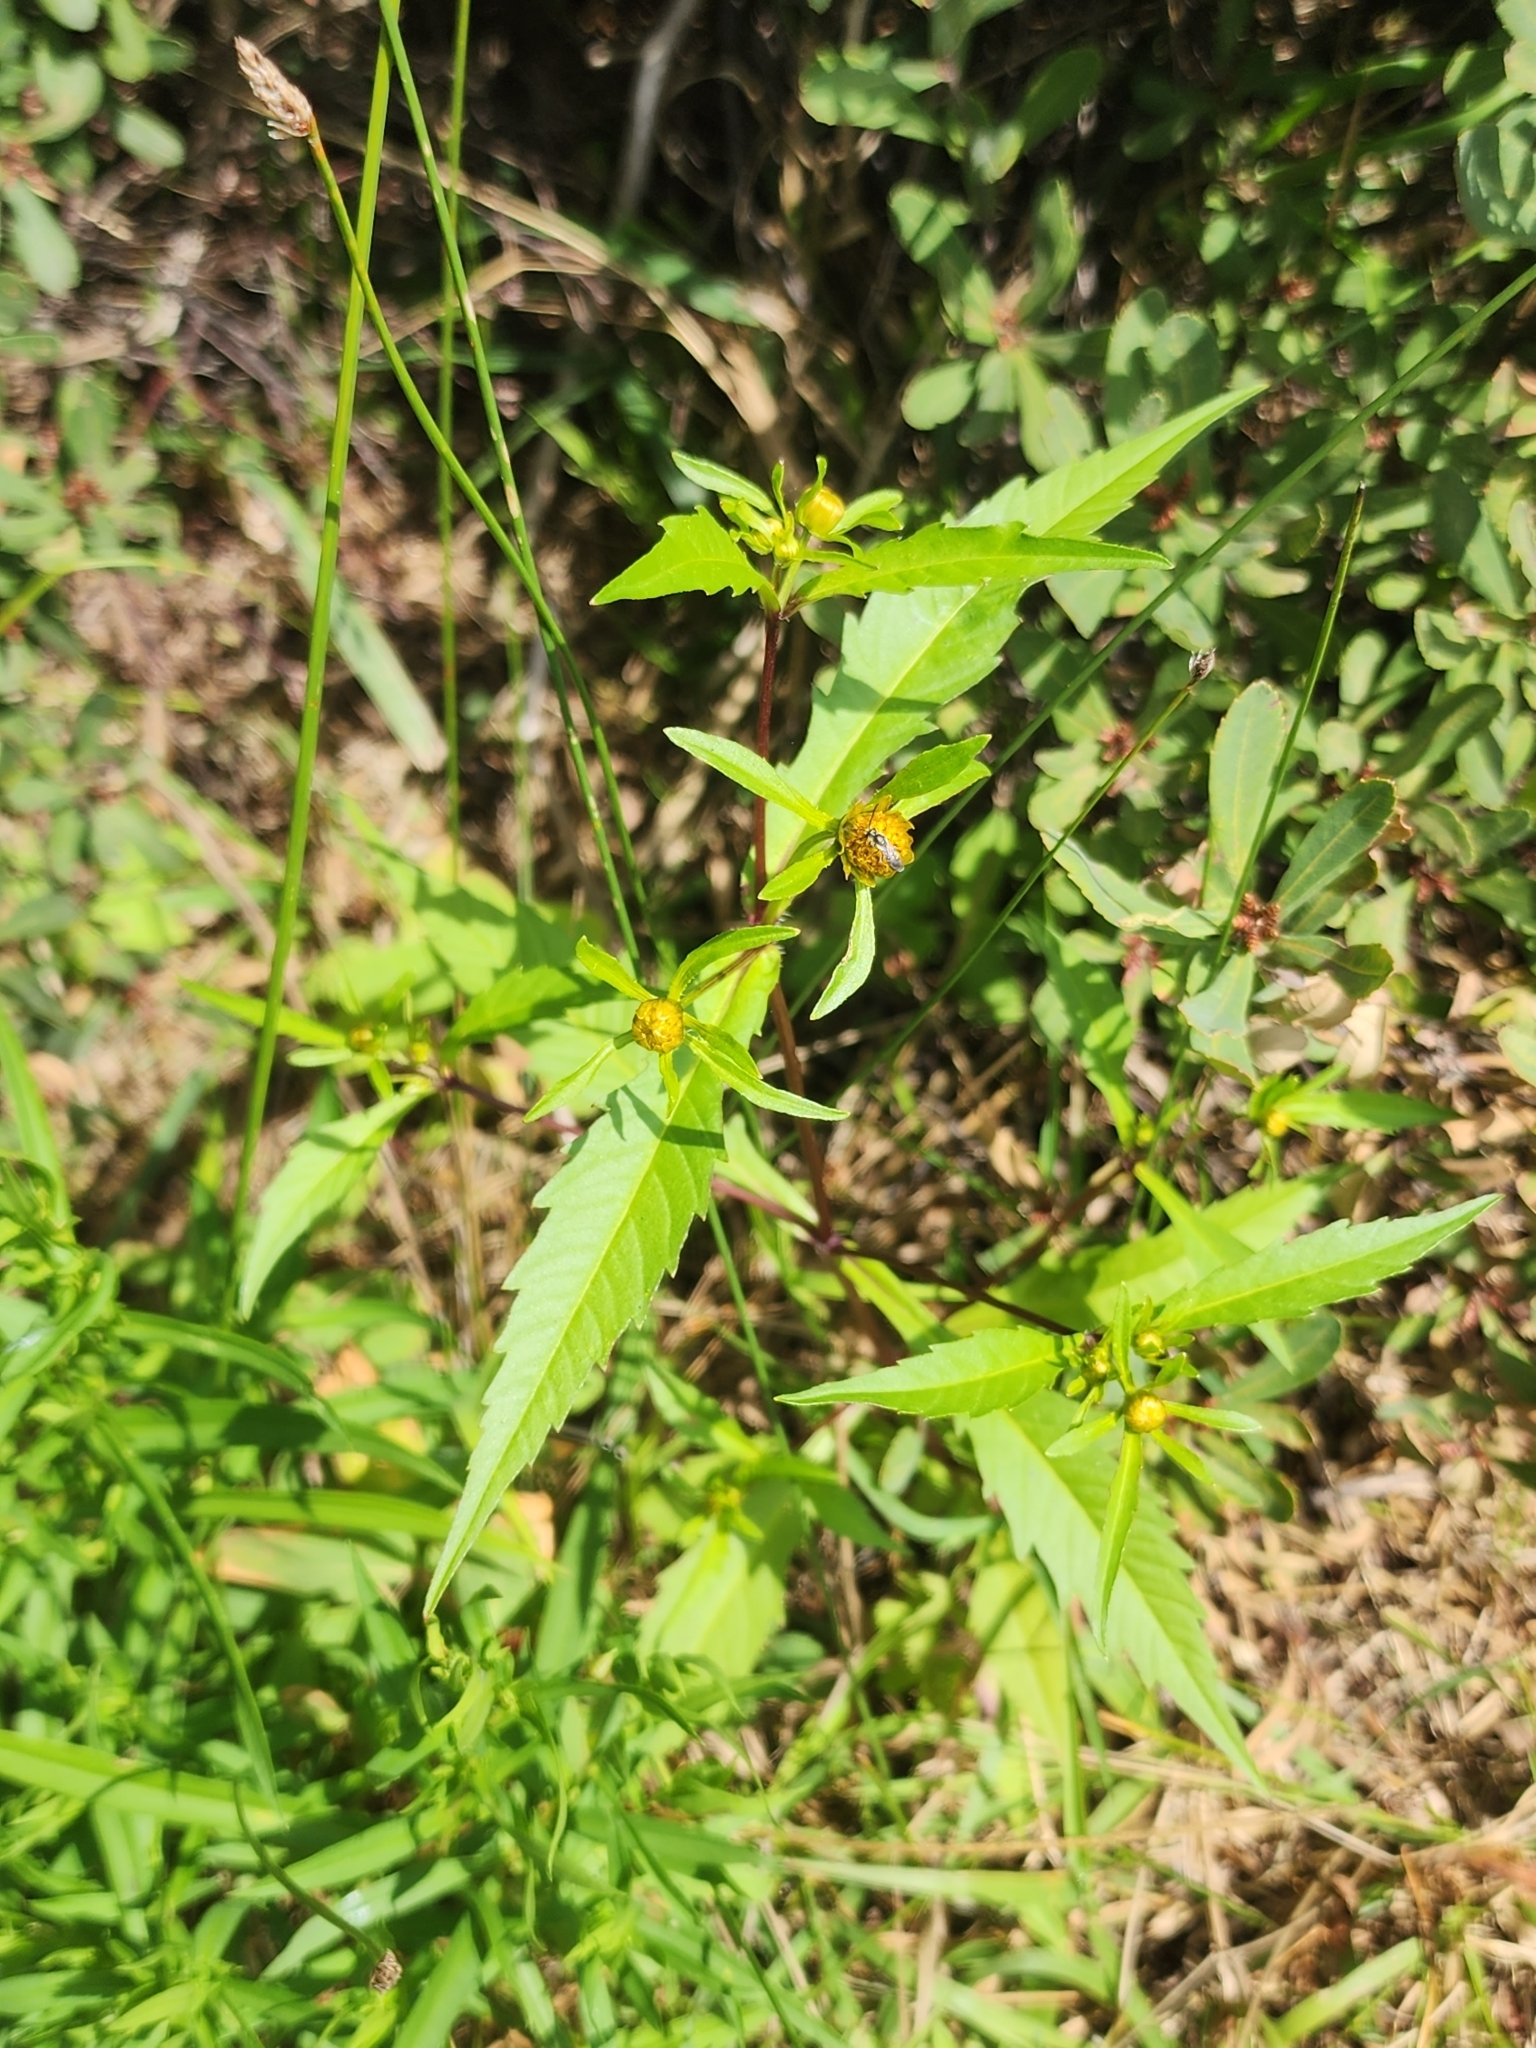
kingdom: Plantae
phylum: Tracheophyta
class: Magnoliopsida
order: Asterales
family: Asteraceae
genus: Bidens
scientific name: Bidens connata
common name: London bur-marigold
